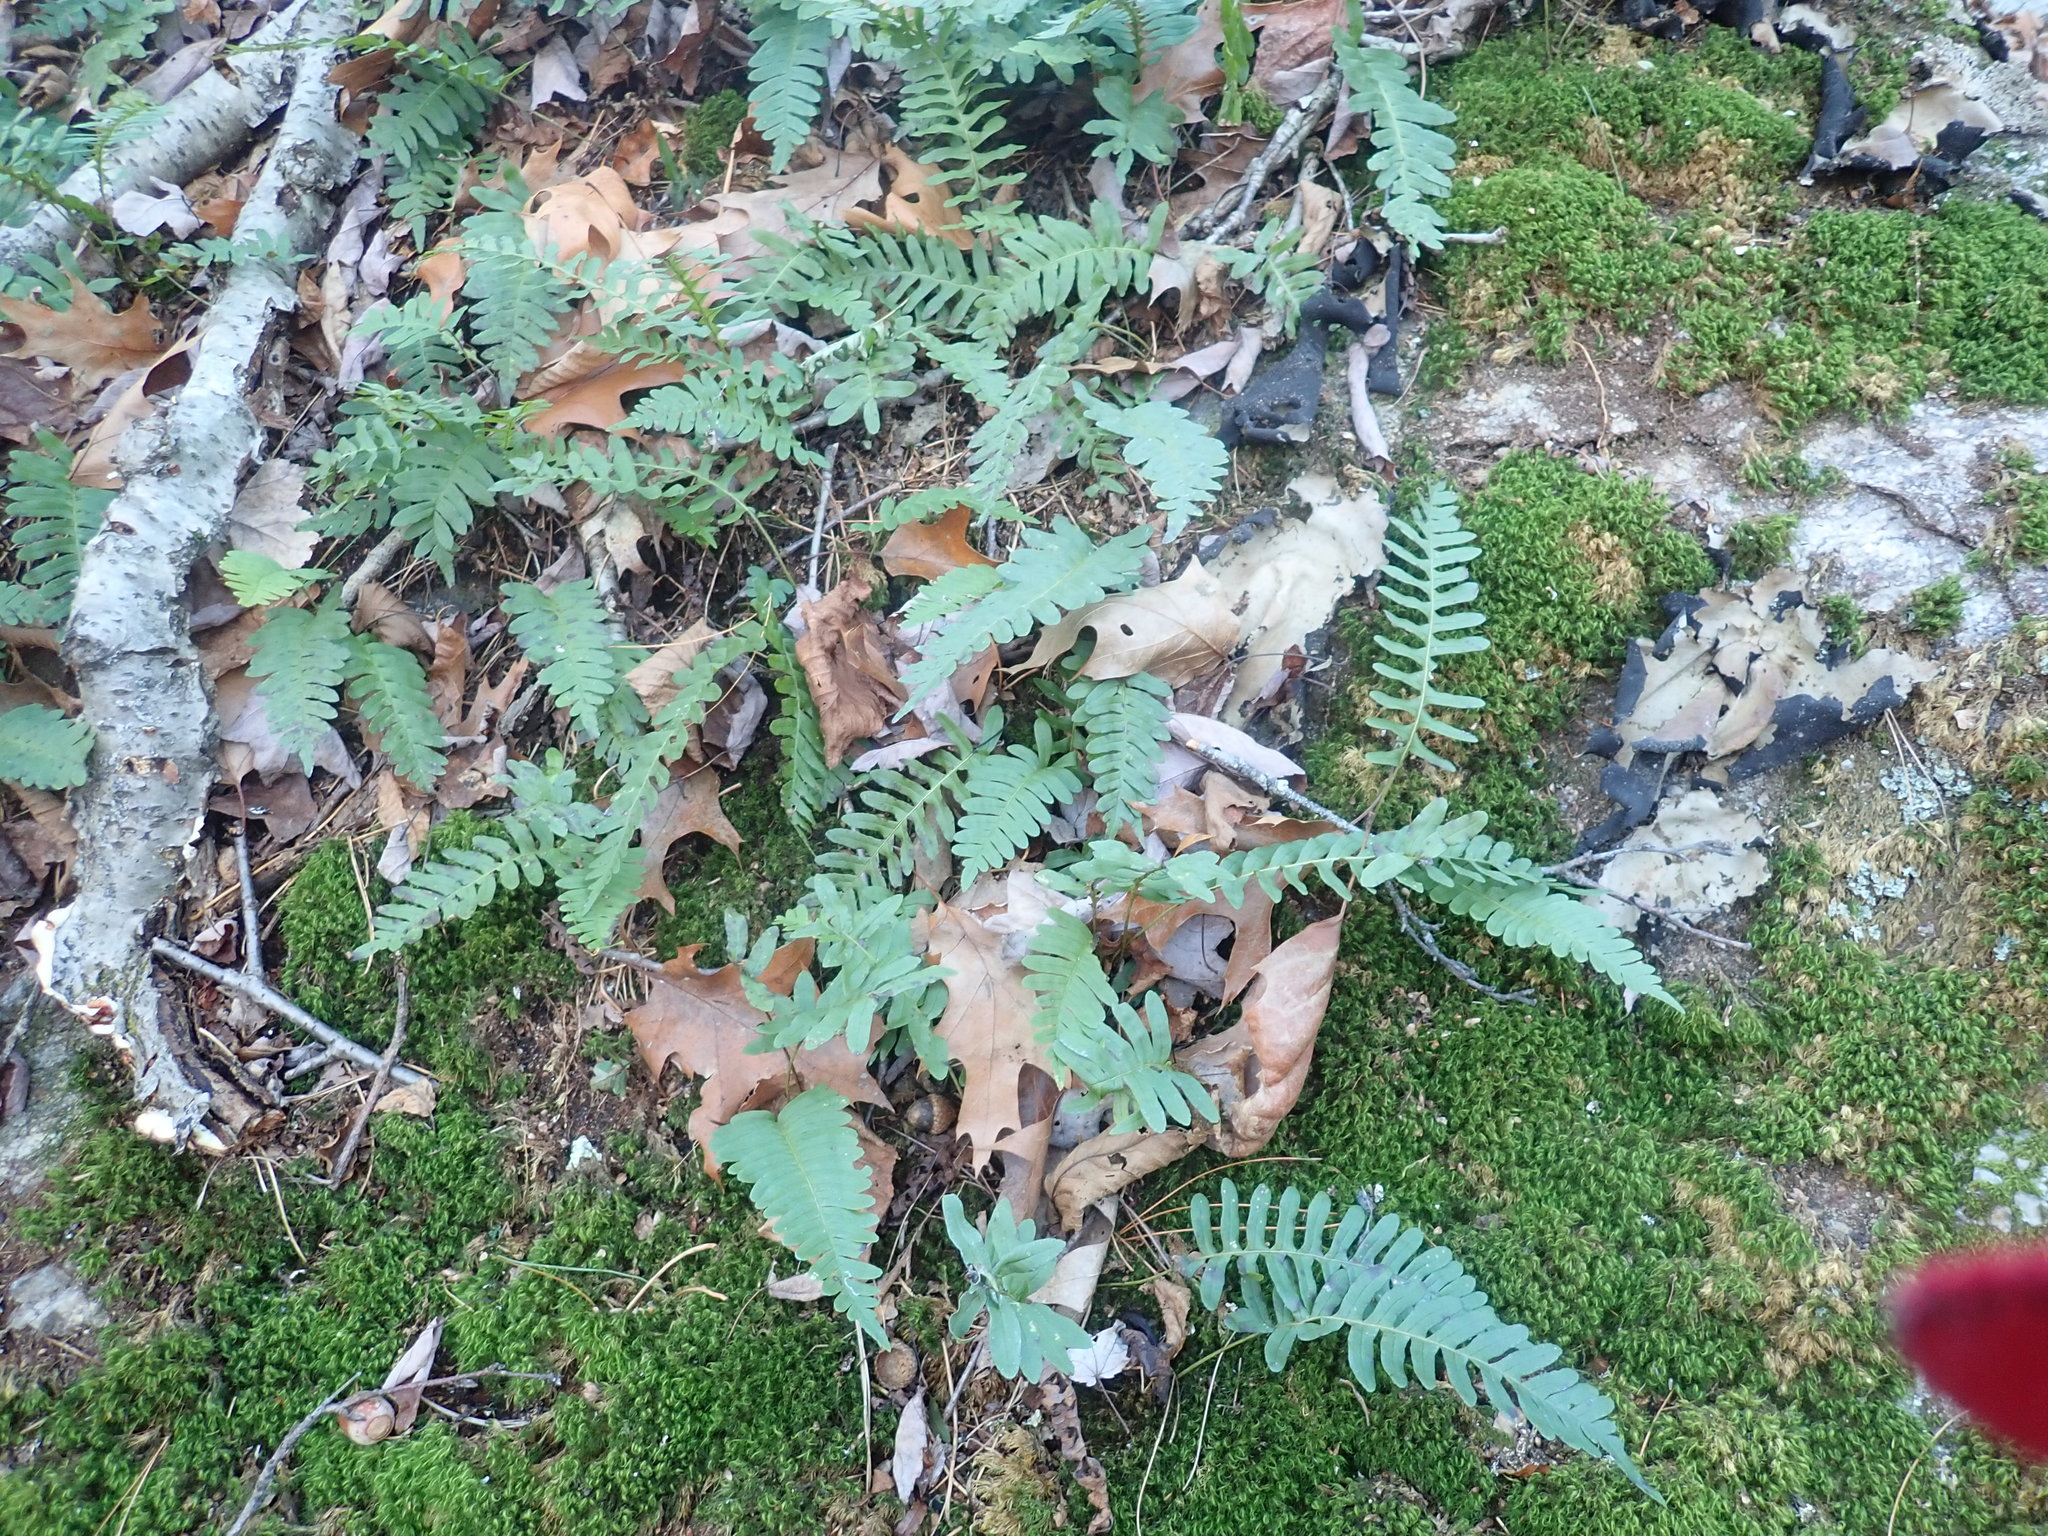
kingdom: Plantae
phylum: Tracheophyta
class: Polypodiopsida
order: Polypodiales
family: Polypodiaceae
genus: Polypodium
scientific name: Polypodium virginianum
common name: American wall fern
